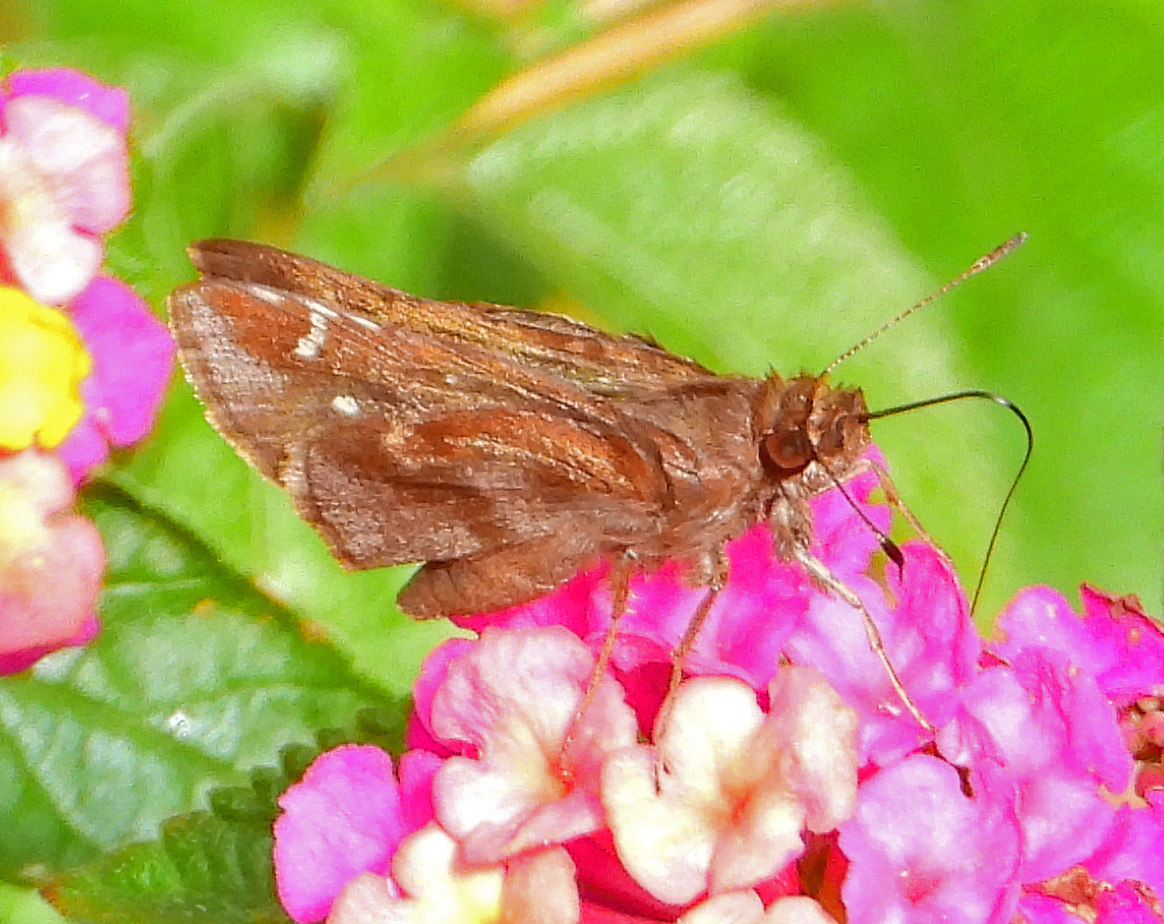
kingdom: Animalia
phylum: Arthropoda
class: Insecta
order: Lepidoptera
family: Hesperiidae
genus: Lerema
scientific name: Lerema accius
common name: Clouded skipper
